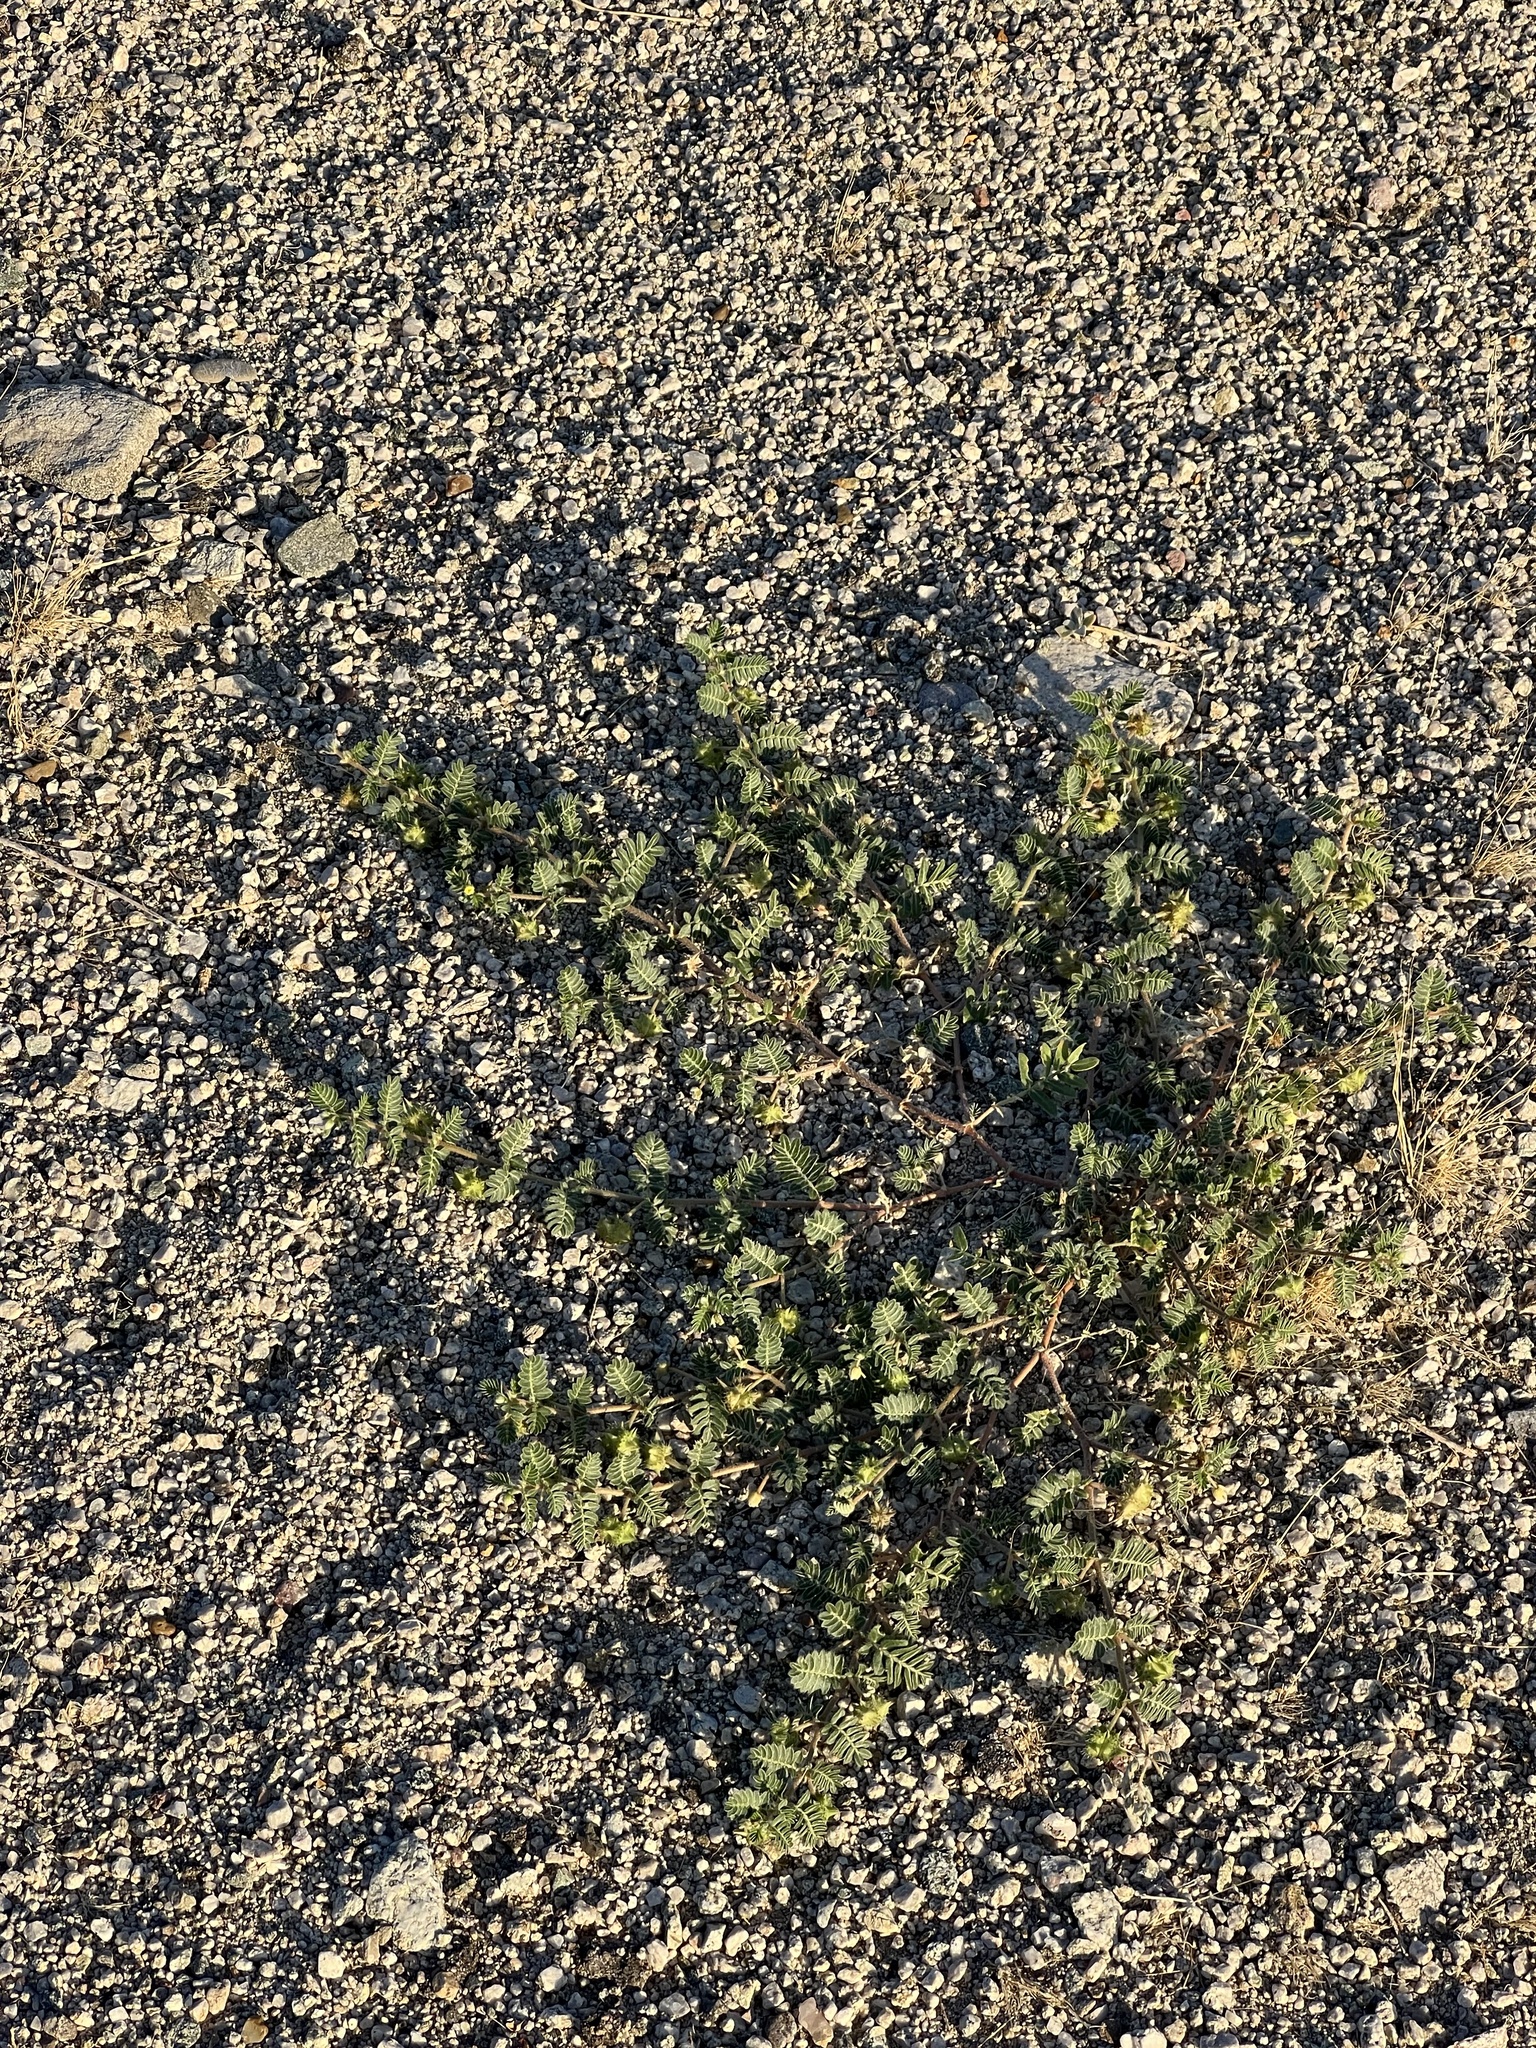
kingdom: Plantae
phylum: Tracheophyta
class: Magnoliopsida
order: Zygophyllales
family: Zygophyllaceae
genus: Tribulus
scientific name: Tribulus terrestris
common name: Puncturevine
